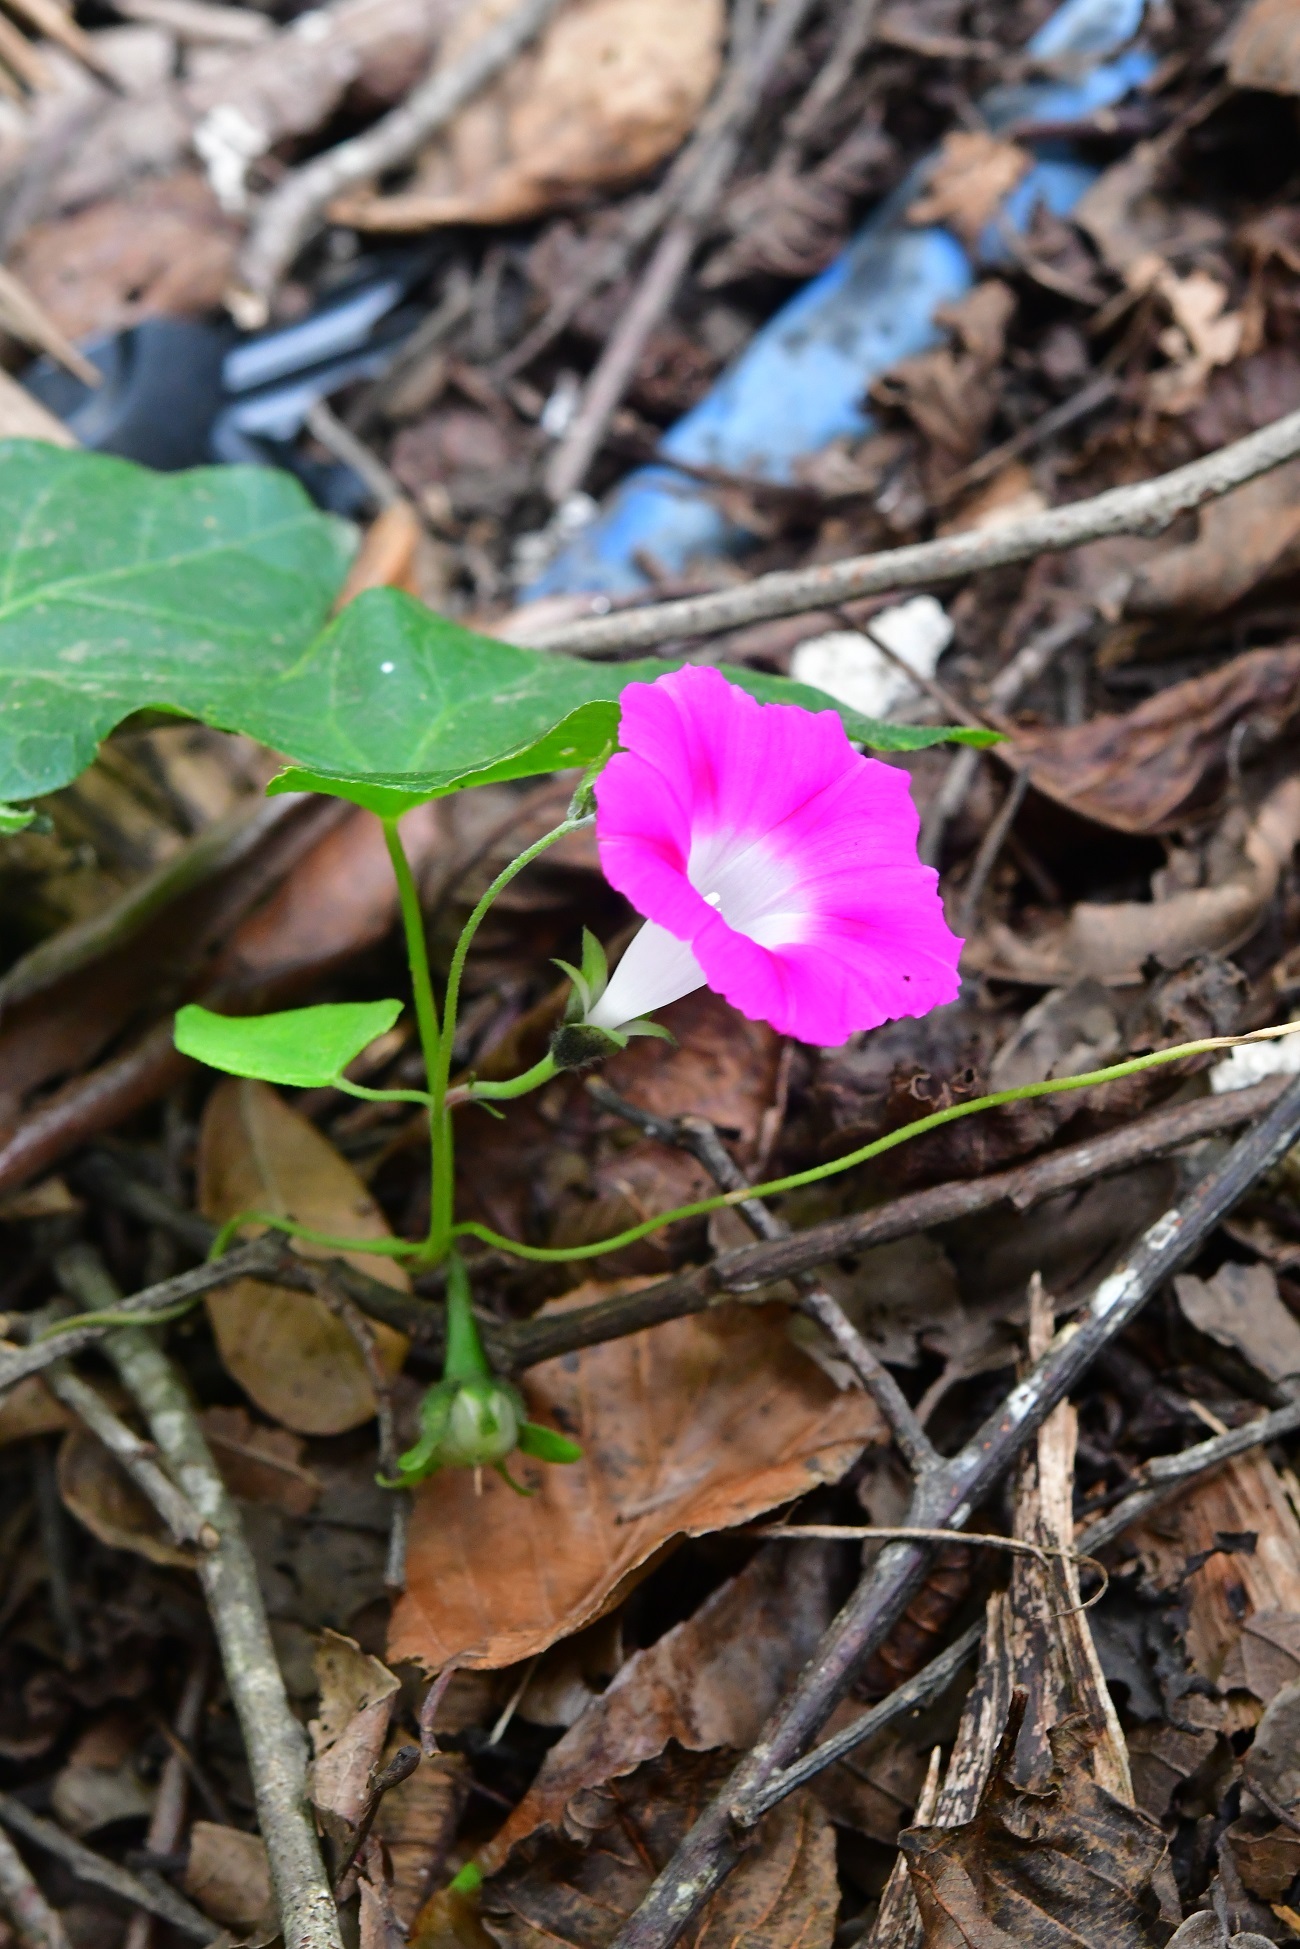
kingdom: Plantae
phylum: Tracheophyta
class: Magnoliopsida
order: Solanales
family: Convolvulaceae
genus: Ipomoea
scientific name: Ipomoea purpurea
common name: Common morning-glory
